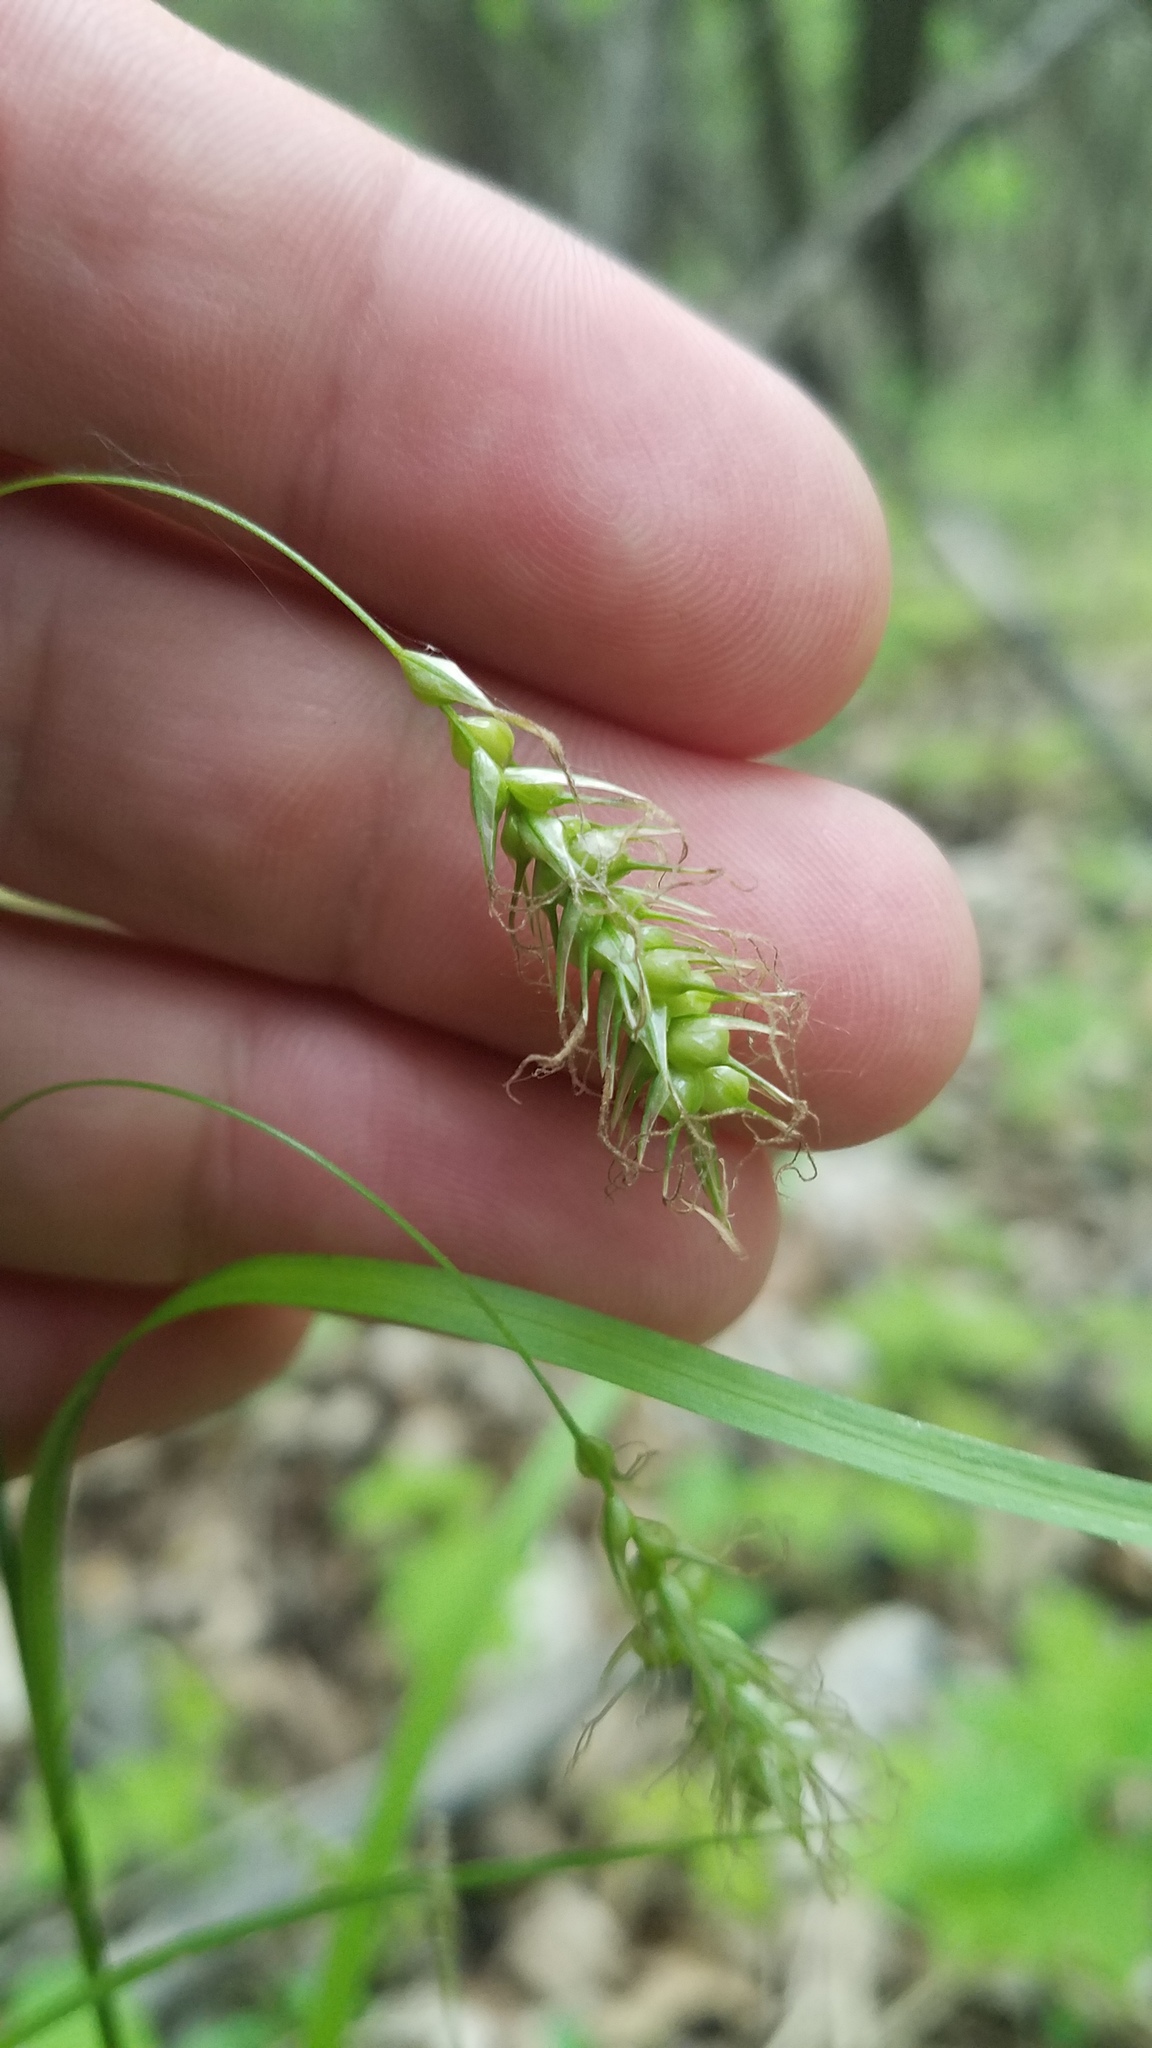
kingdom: Plantae
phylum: Tracheophyta
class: Liliopsida
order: Poales
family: Cyperaceae
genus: Carex
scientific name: Carex sprengelii
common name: Long-beaked sedge
